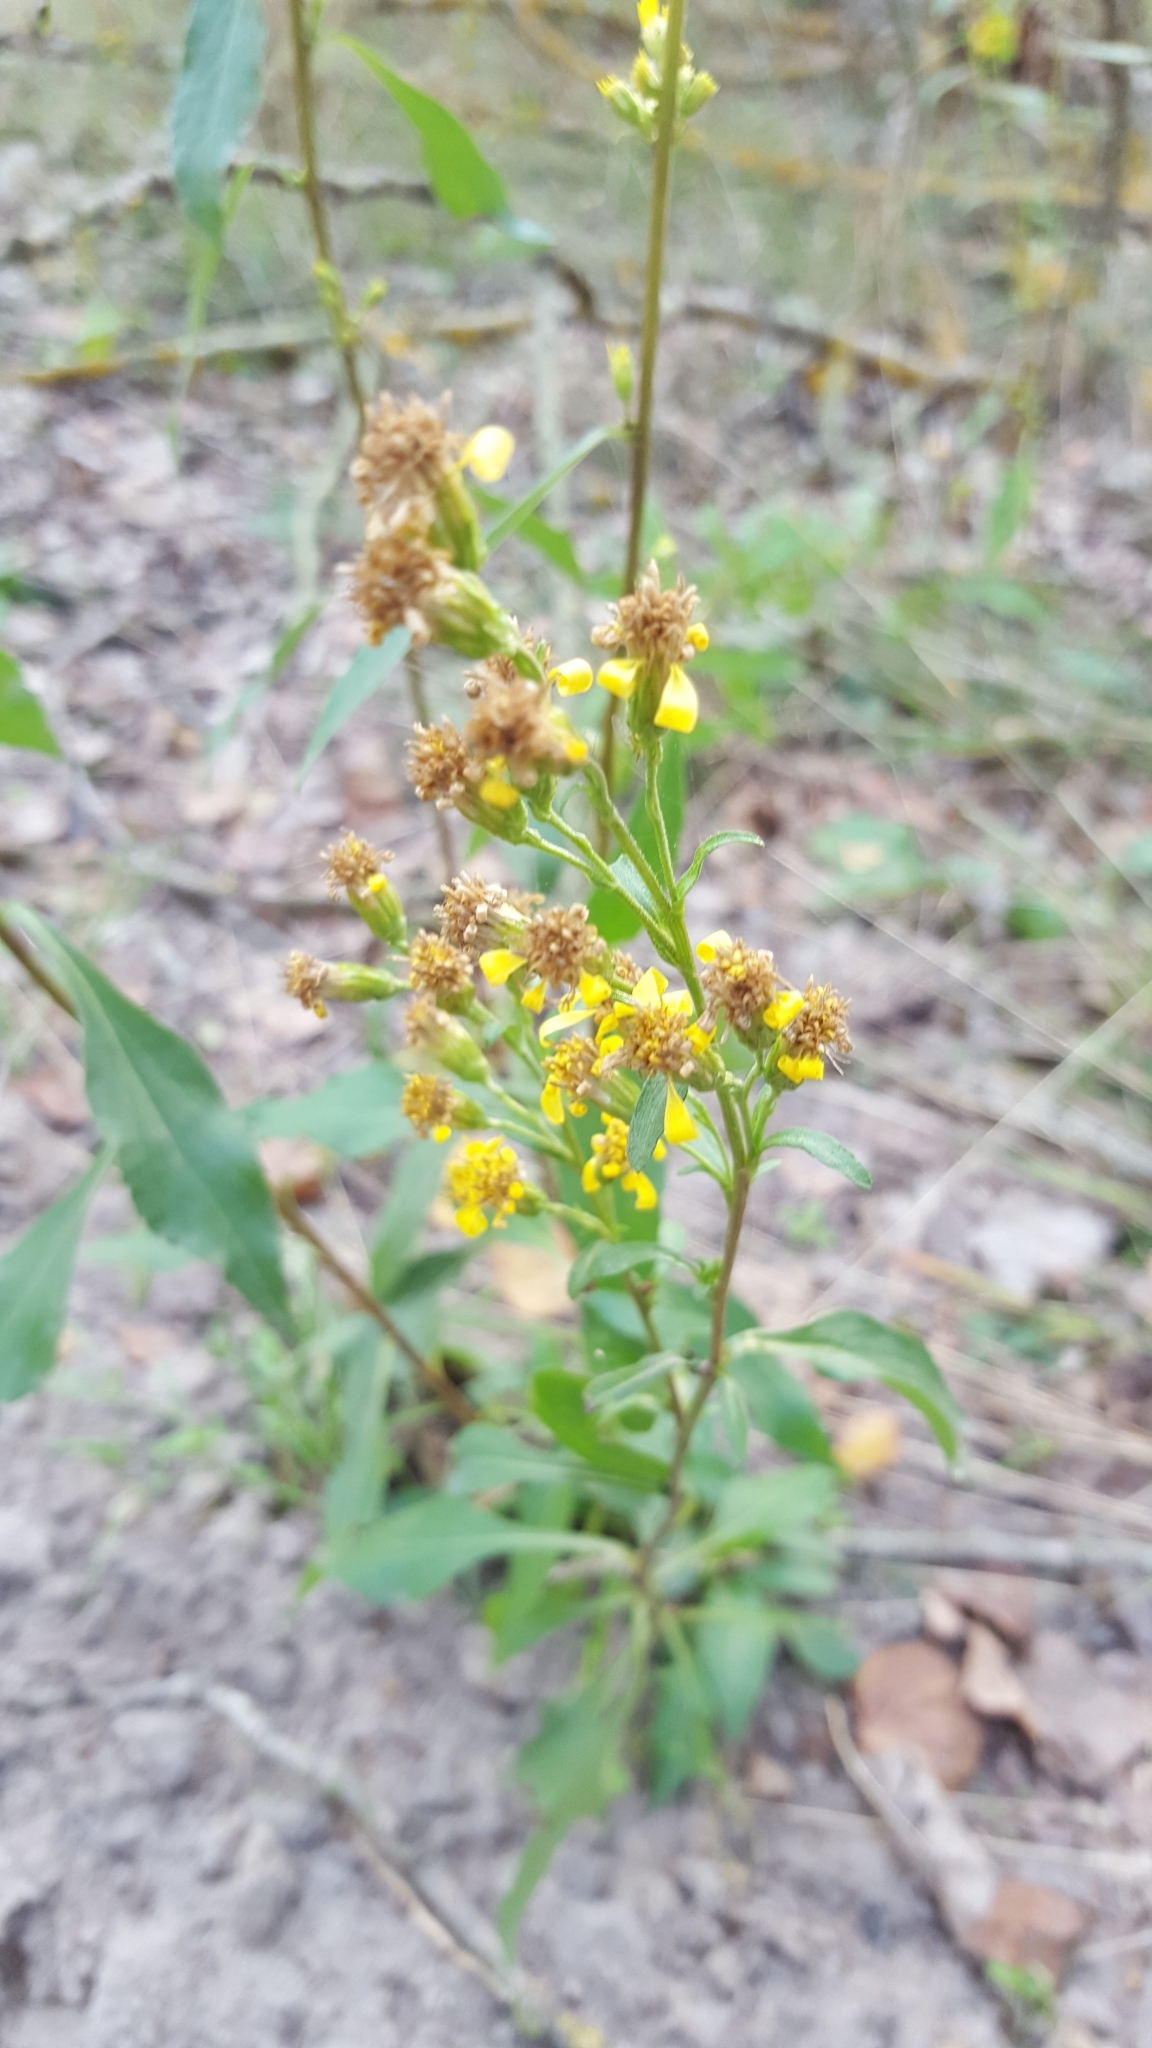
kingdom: Plantae
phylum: Tracheophyta
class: Magnoliopsida
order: Asterales
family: Asteraceae
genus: Solidago
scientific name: Solidago virgaurea
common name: Goldenrod
